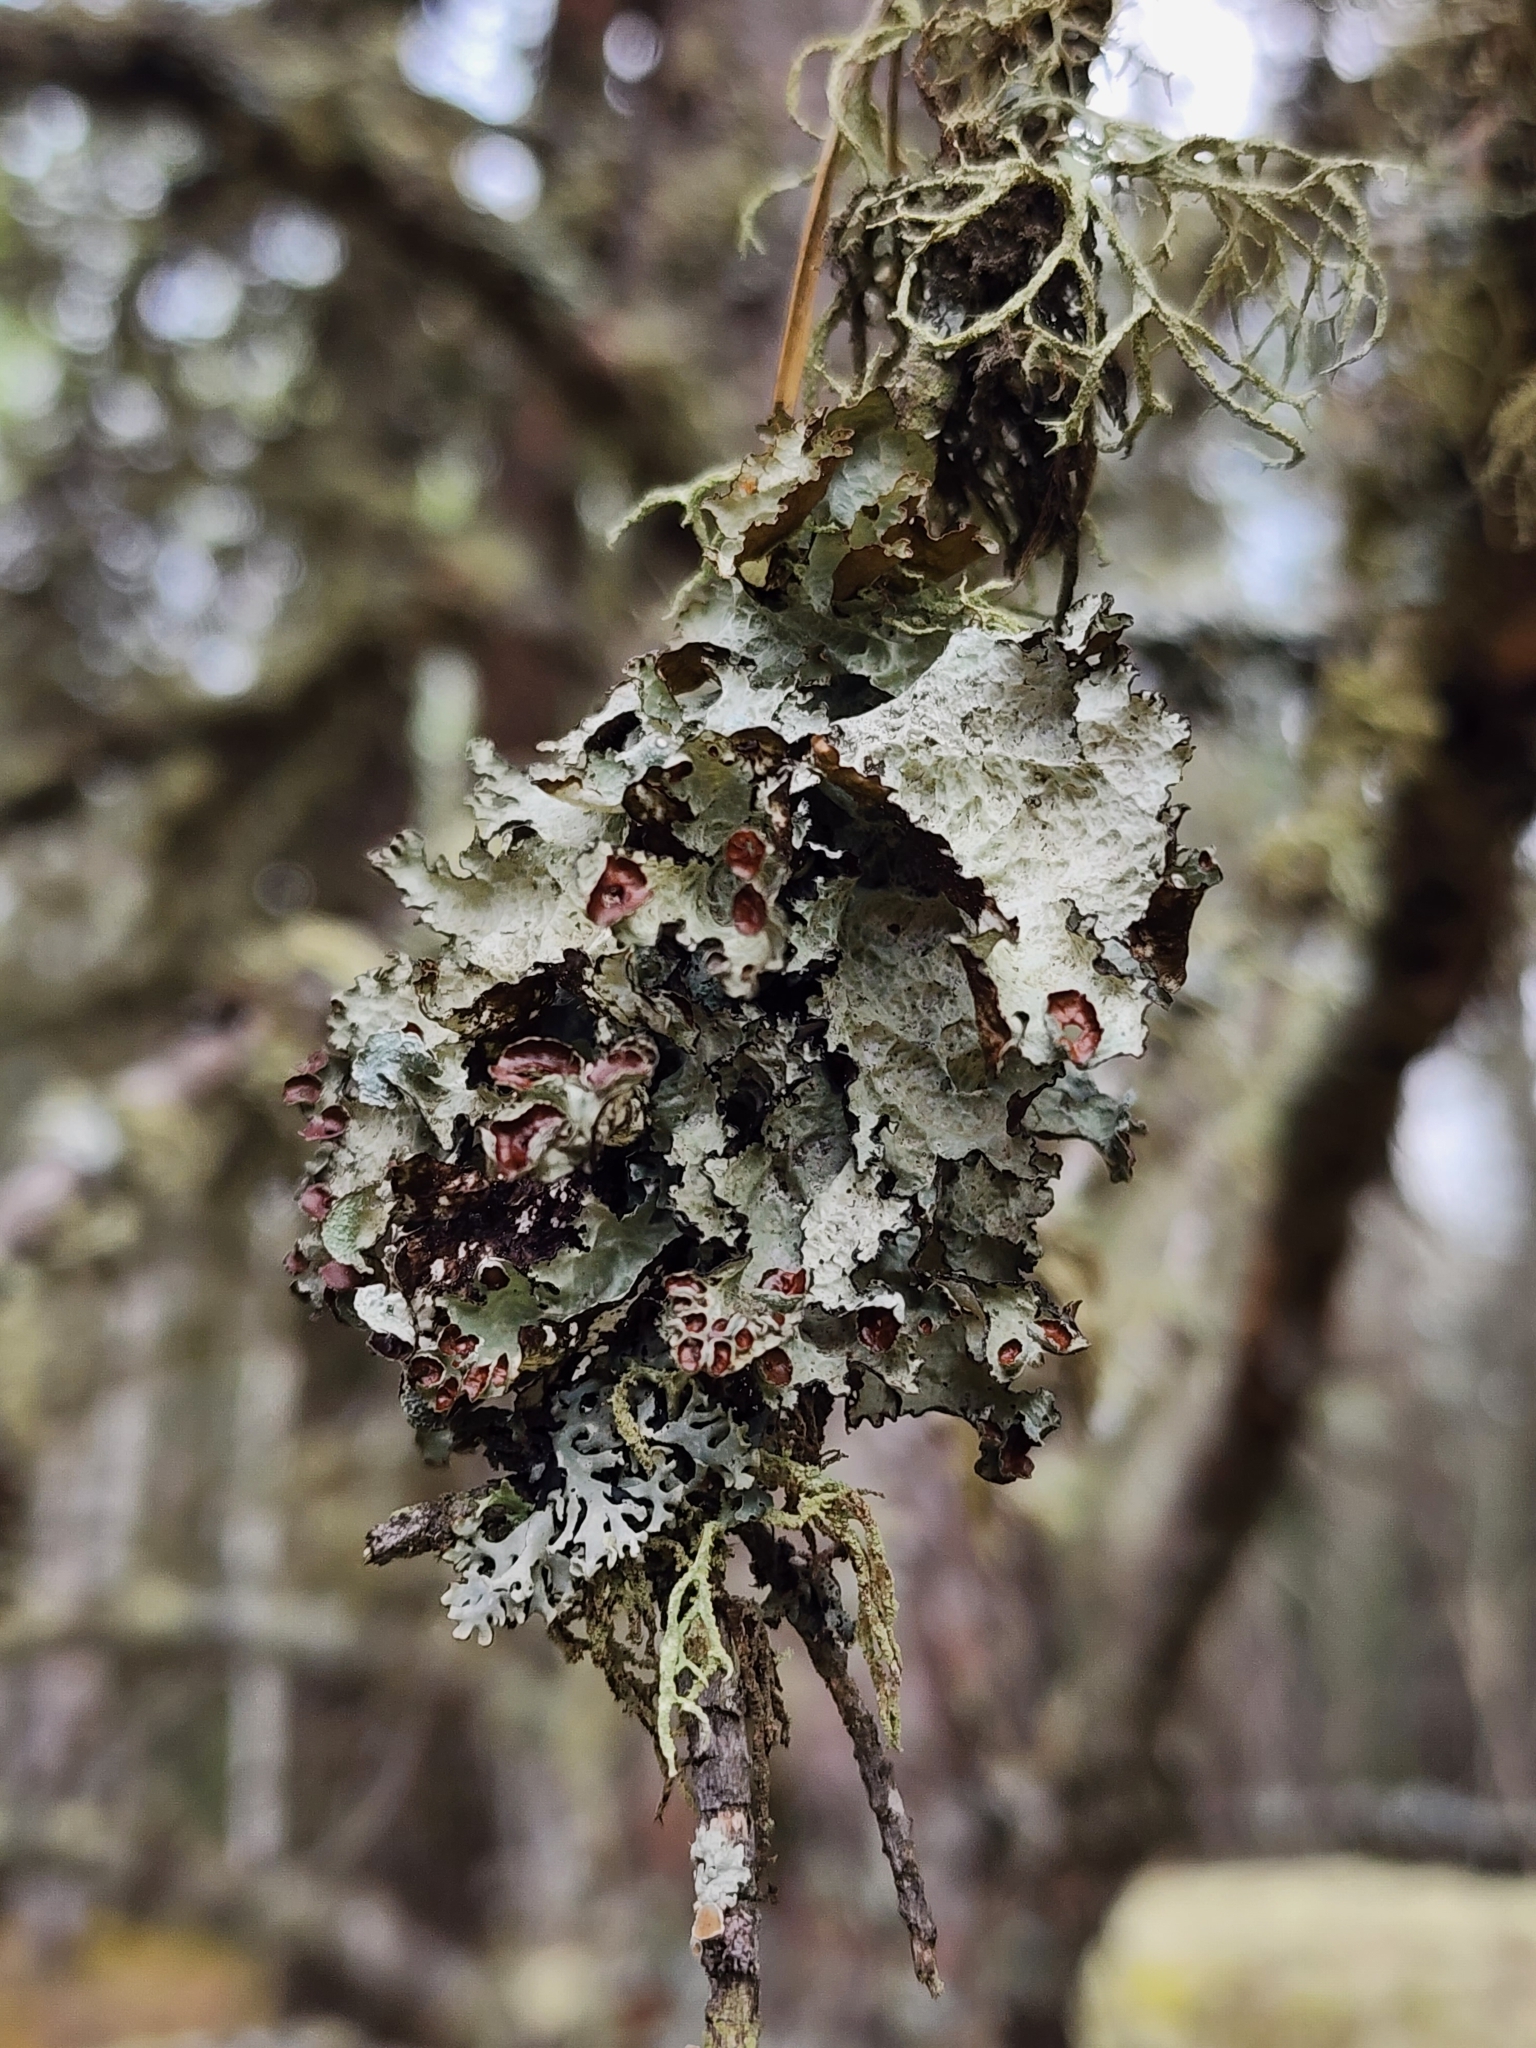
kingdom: Fungi
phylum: Ascomycota
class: Lecanoromycetes
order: Lecanorales
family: Parmeliaceae
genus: Platismatia
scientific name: Platismatia tuckermanii
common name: Crumpled rag lichen
